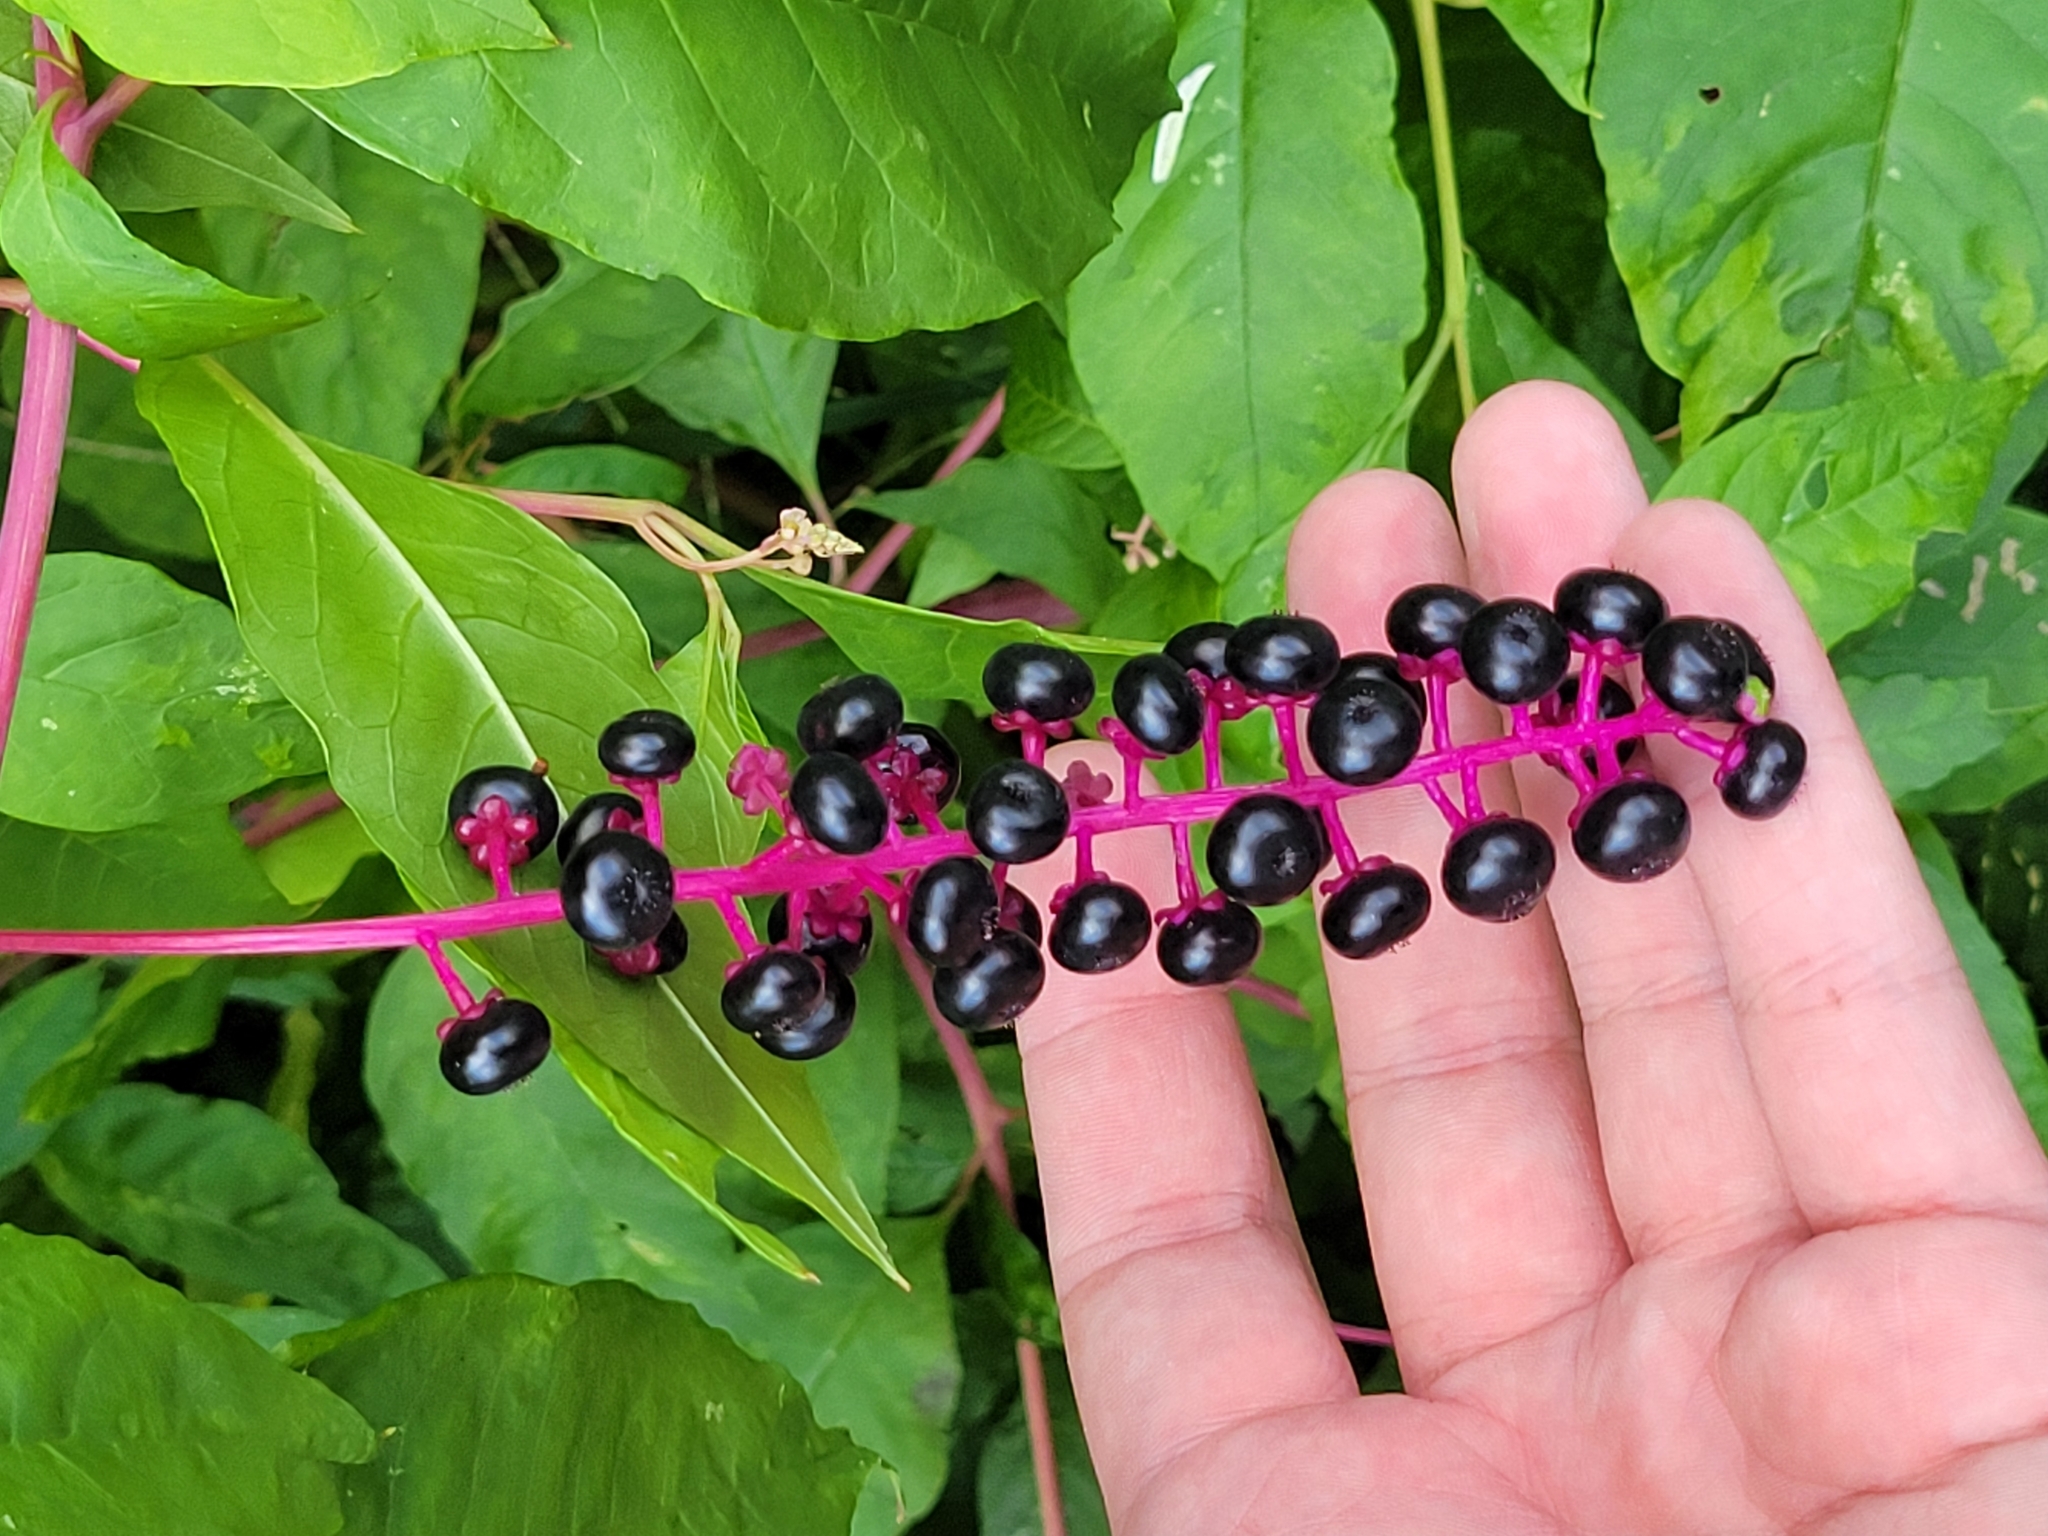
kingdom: Plantae
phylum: Tracheophyta
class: Magnoliopsida
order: Caryophyllales
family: Phytolaccaceae
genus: Phytolacca
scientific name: Phytolacca americana
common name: American pokeweed
